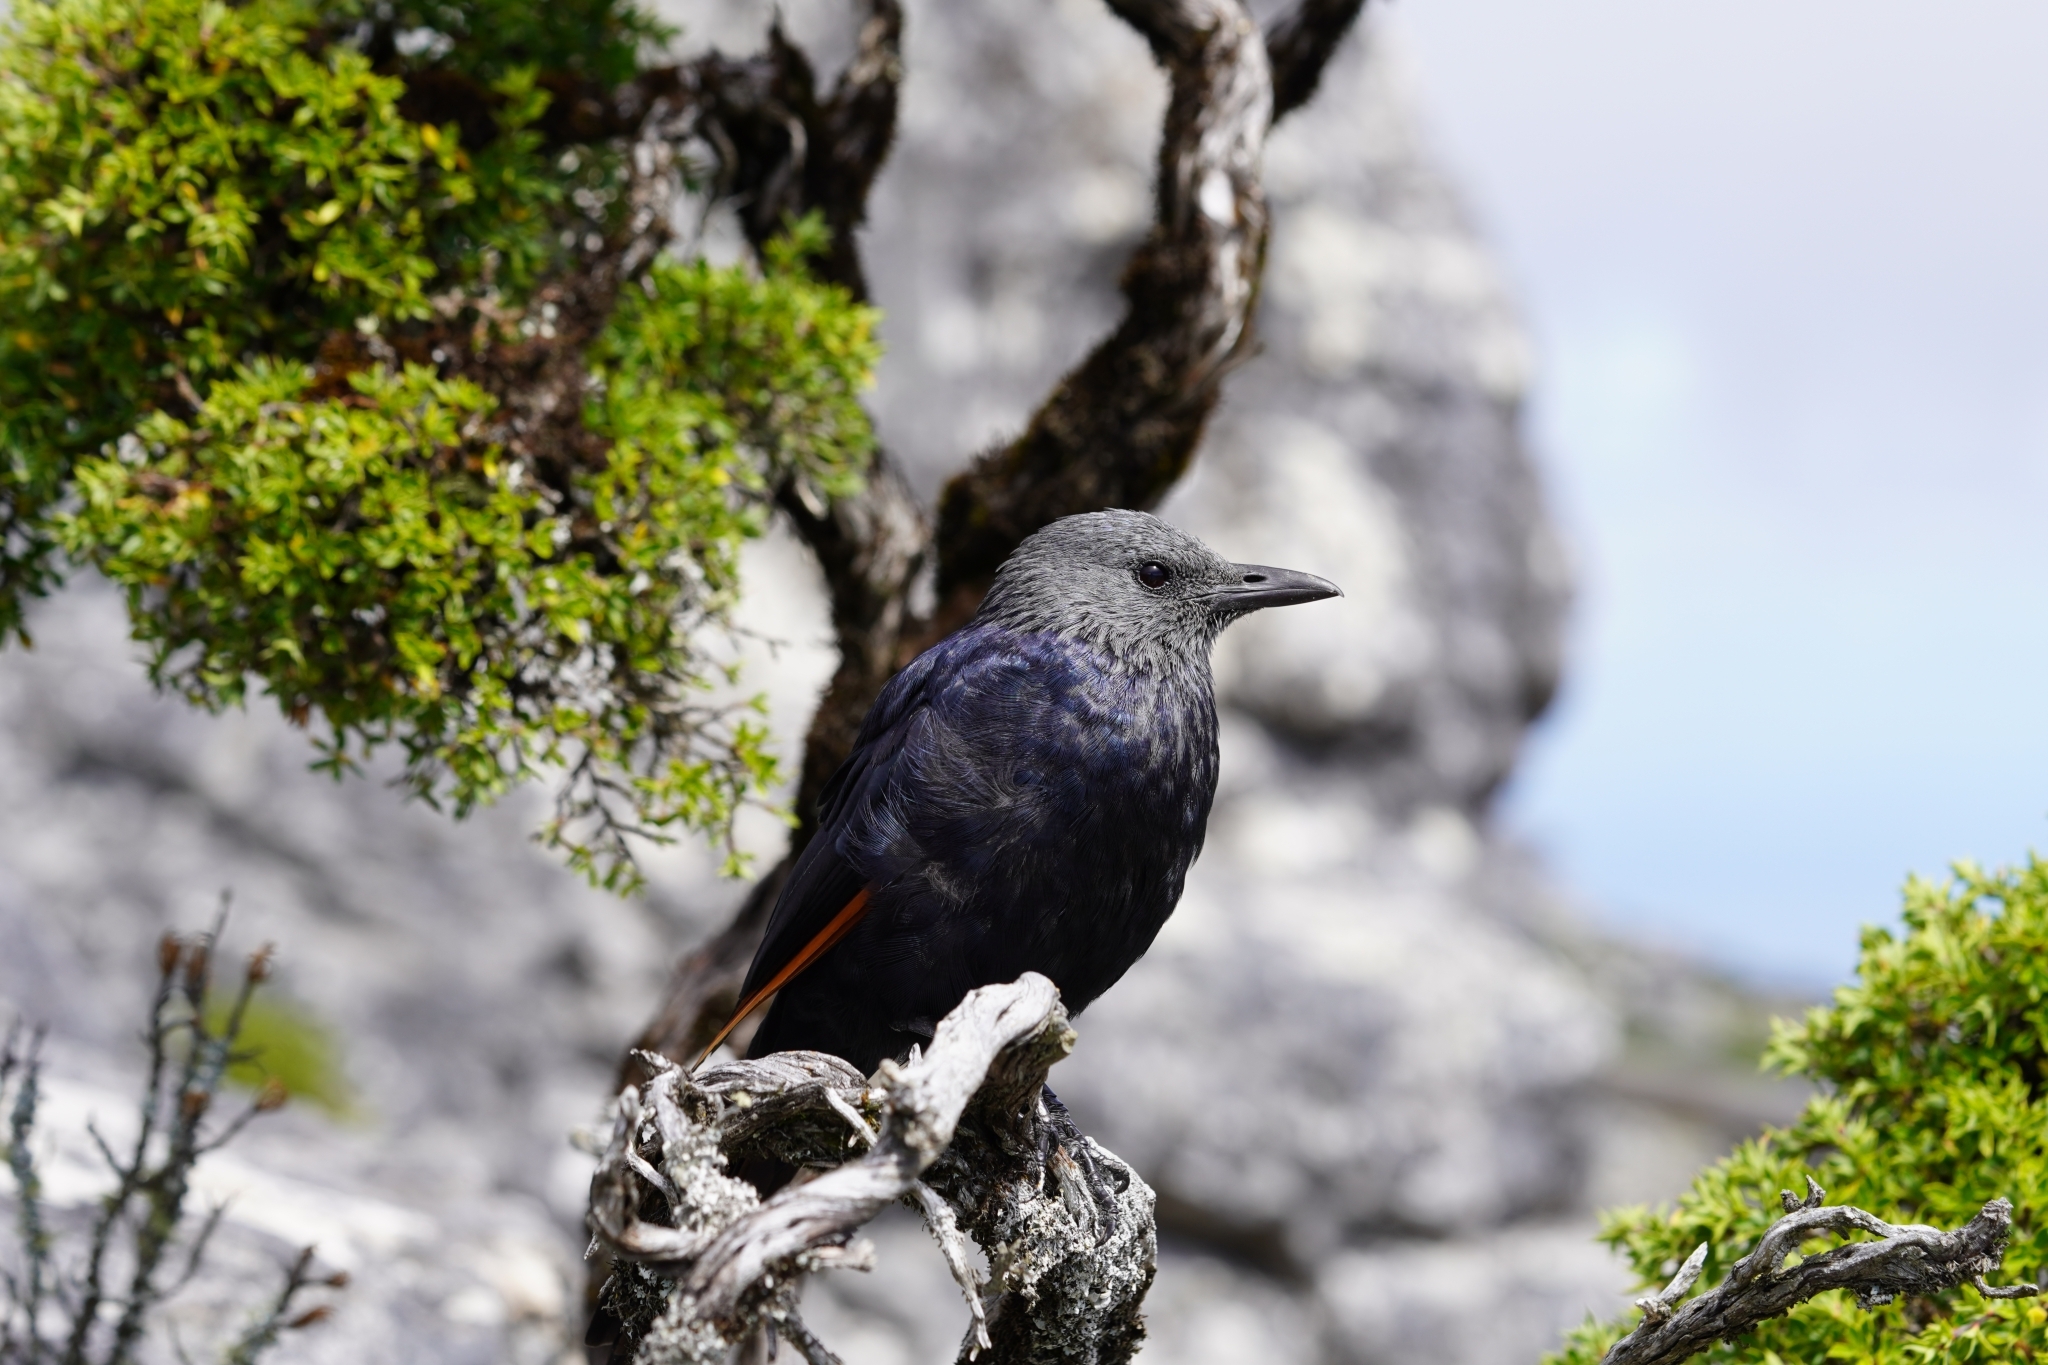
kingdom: Animalia
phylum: Chordata
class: Aves
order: Passeriformes
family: Sturnidae
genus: Onychognathus
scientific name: Onychognathus morio
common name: Red-winged starling
